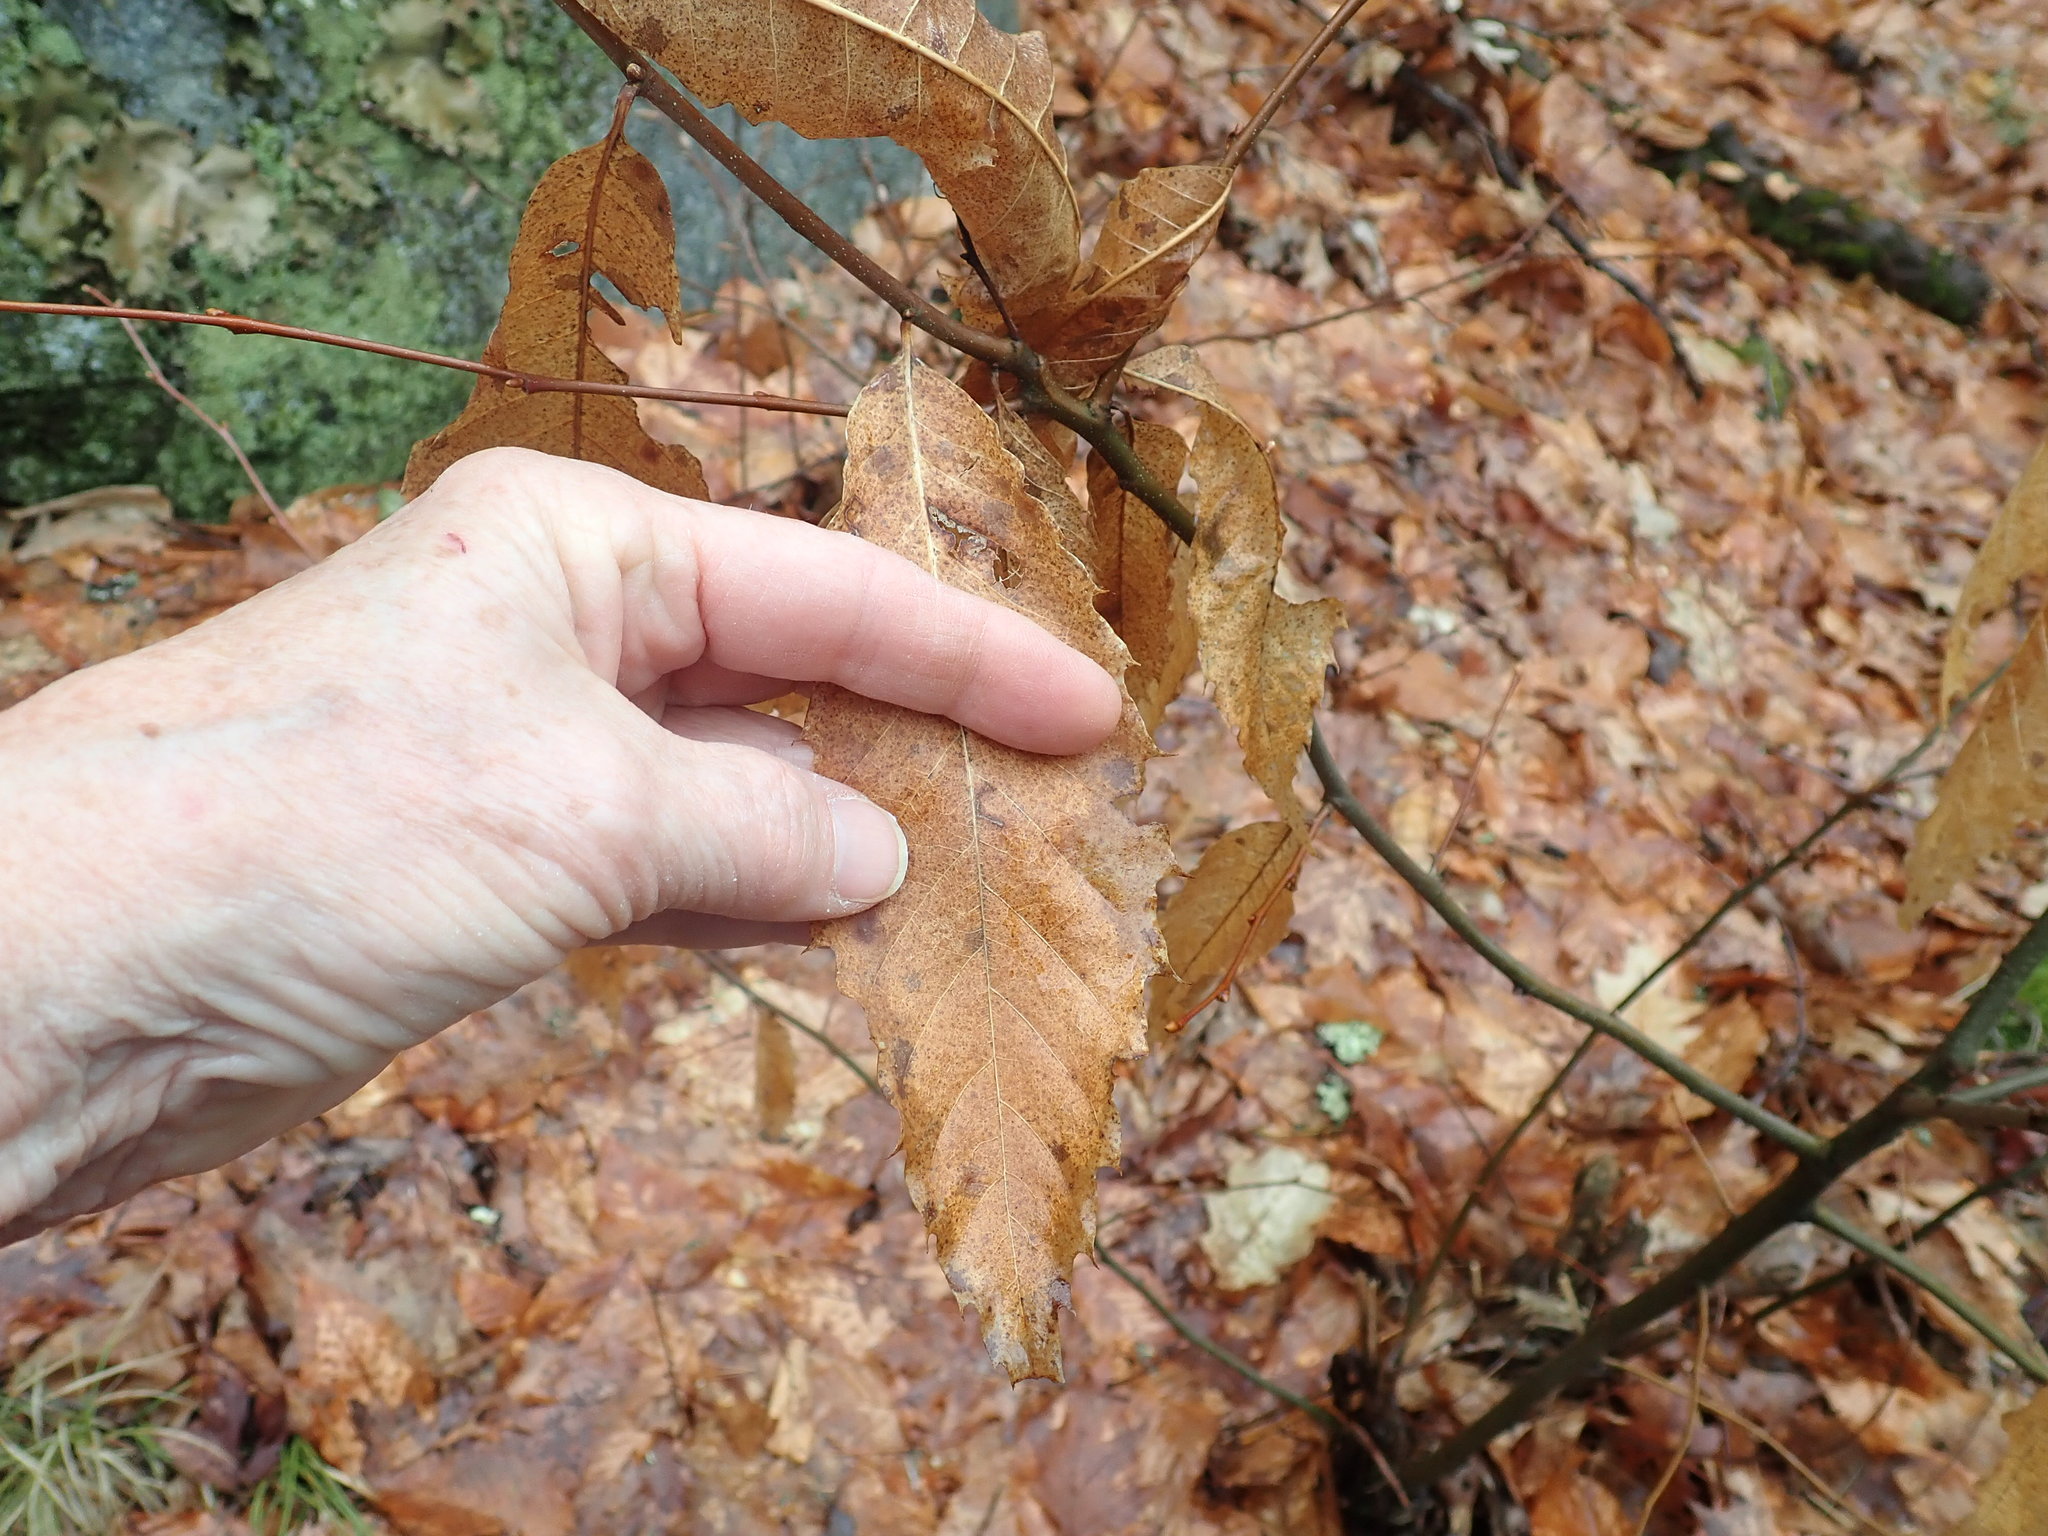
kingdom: Plantae
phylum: Tracheophyta
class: Magnoliopsida
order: Fagales
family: Fagaceae
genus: Castanea
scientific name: Castanea dentata
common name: American chestnut
